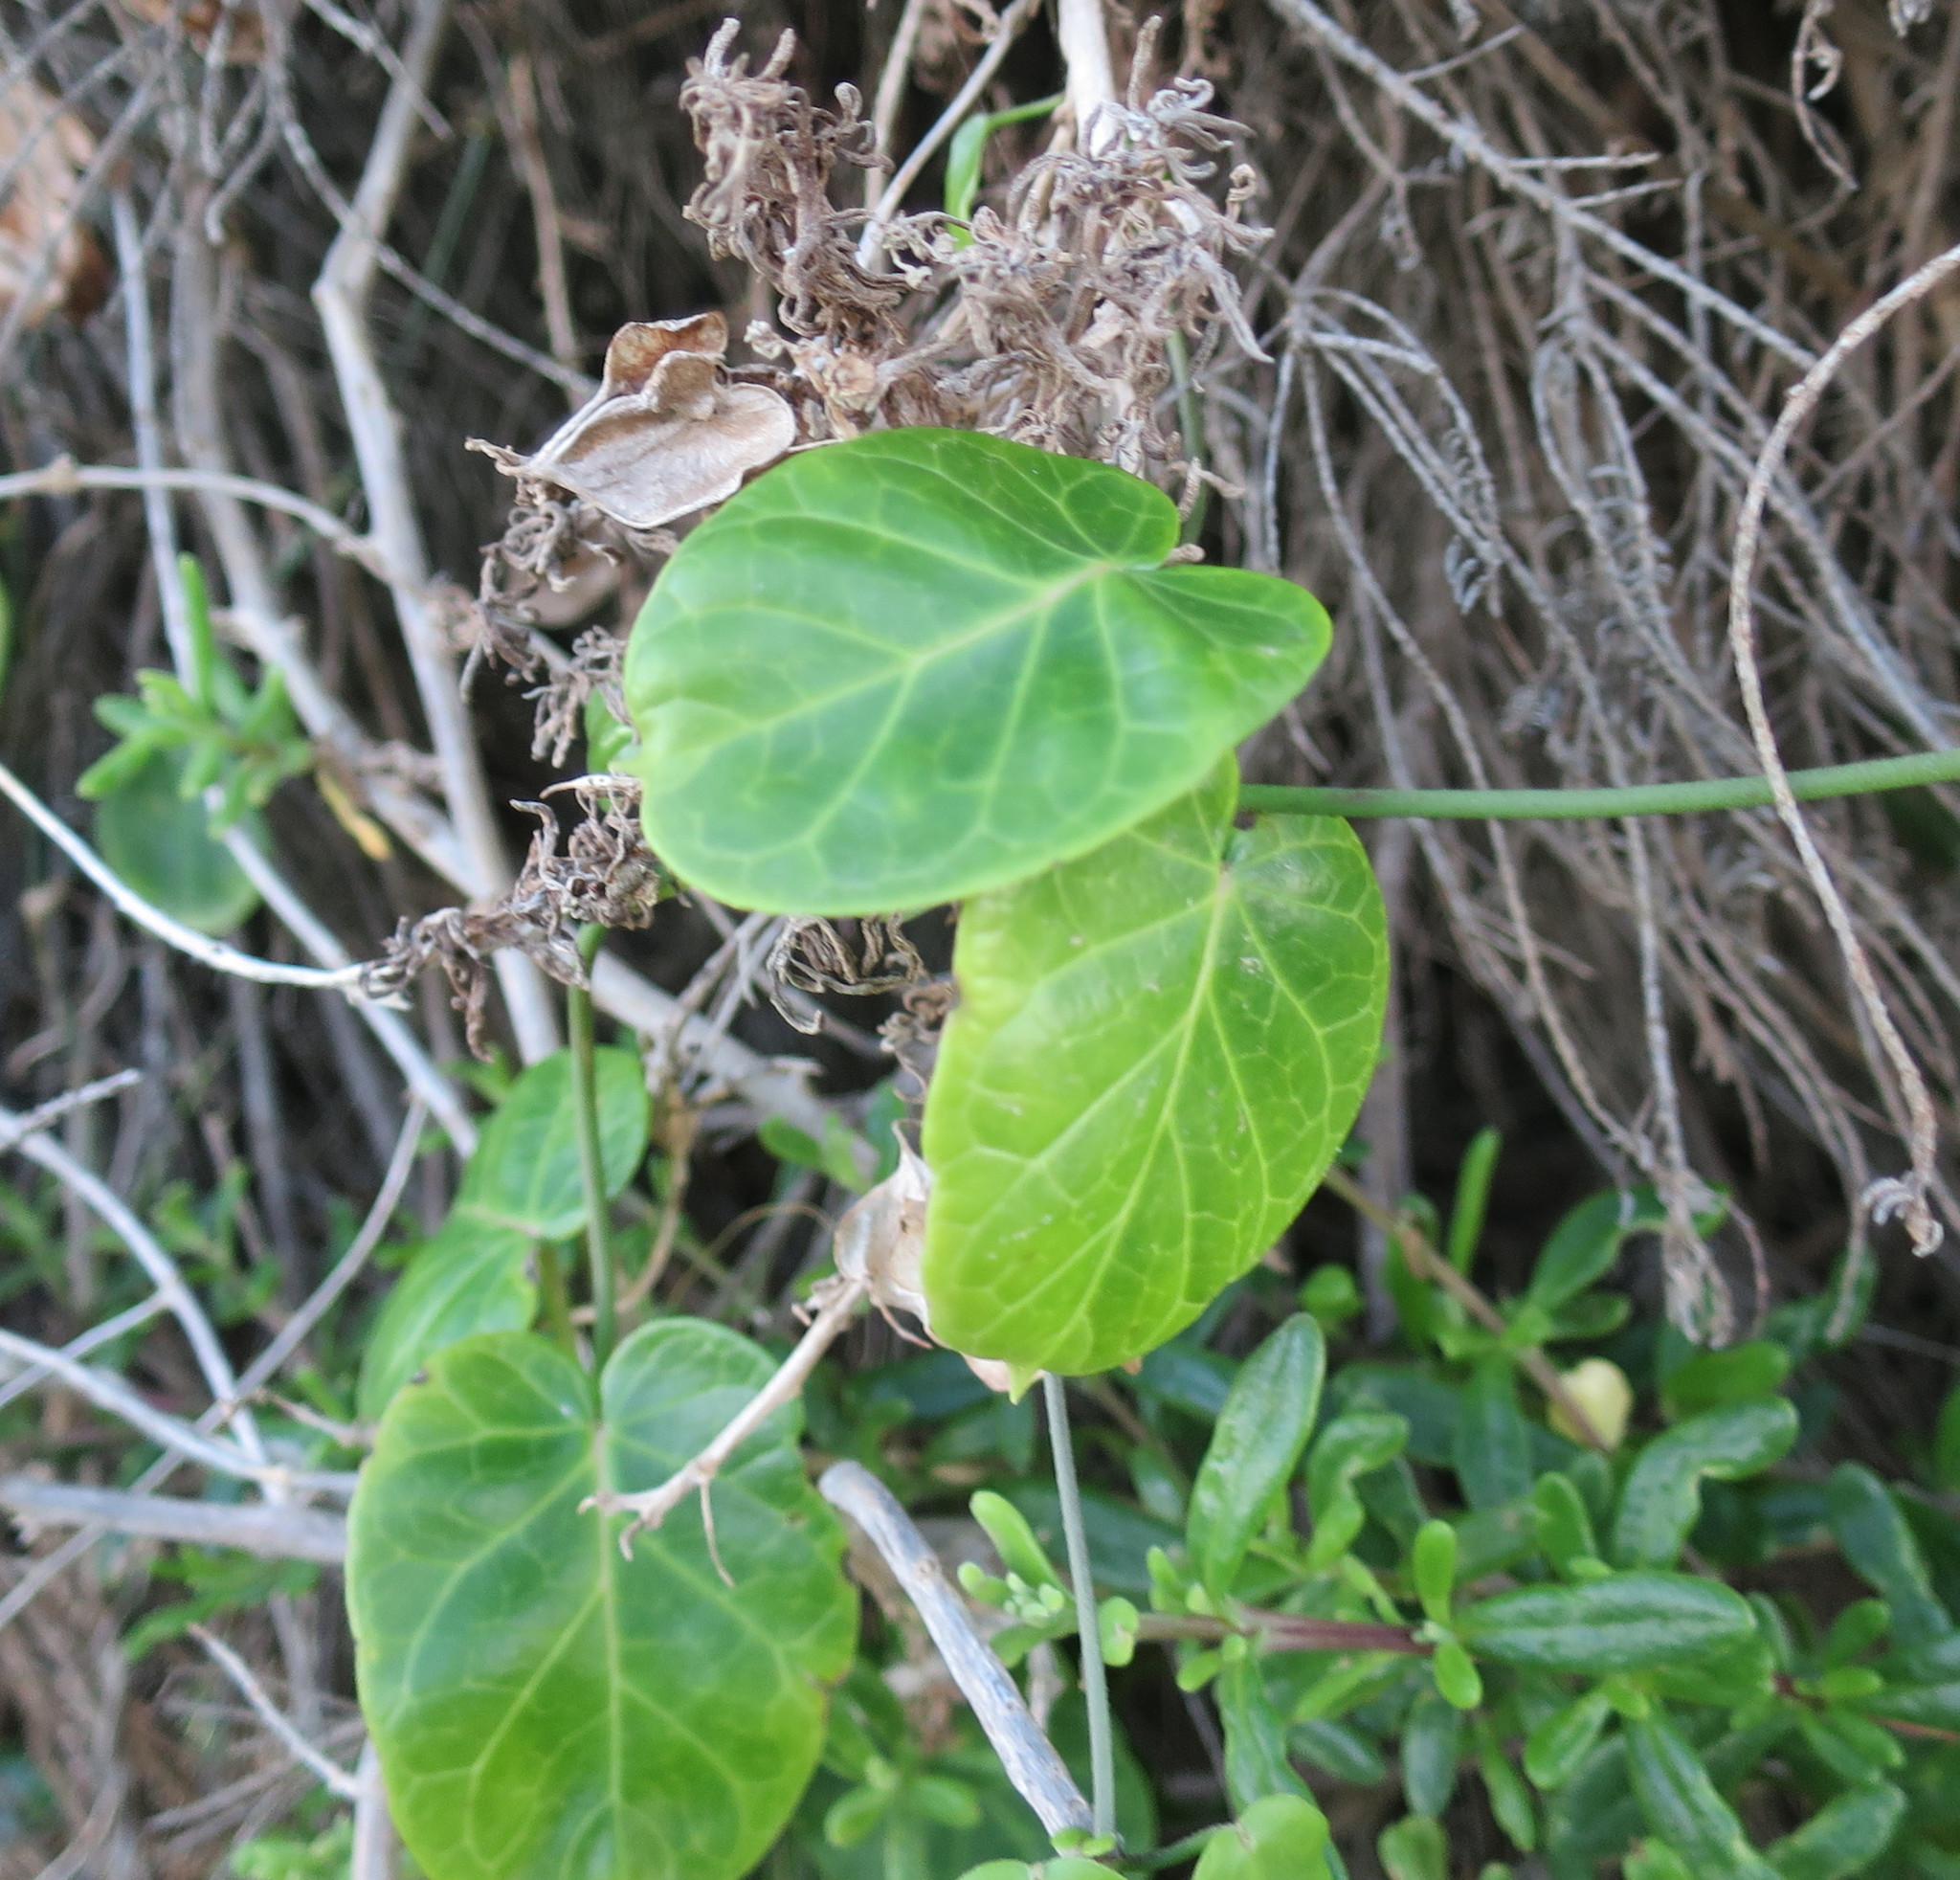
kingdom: Plantae
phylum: Tracheophyta
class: Magnoliopsida
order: Gentianales
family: Apocynaceae
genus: Cynanchum
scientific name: Cynanchum obtusifolium
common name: Monkey-rope
